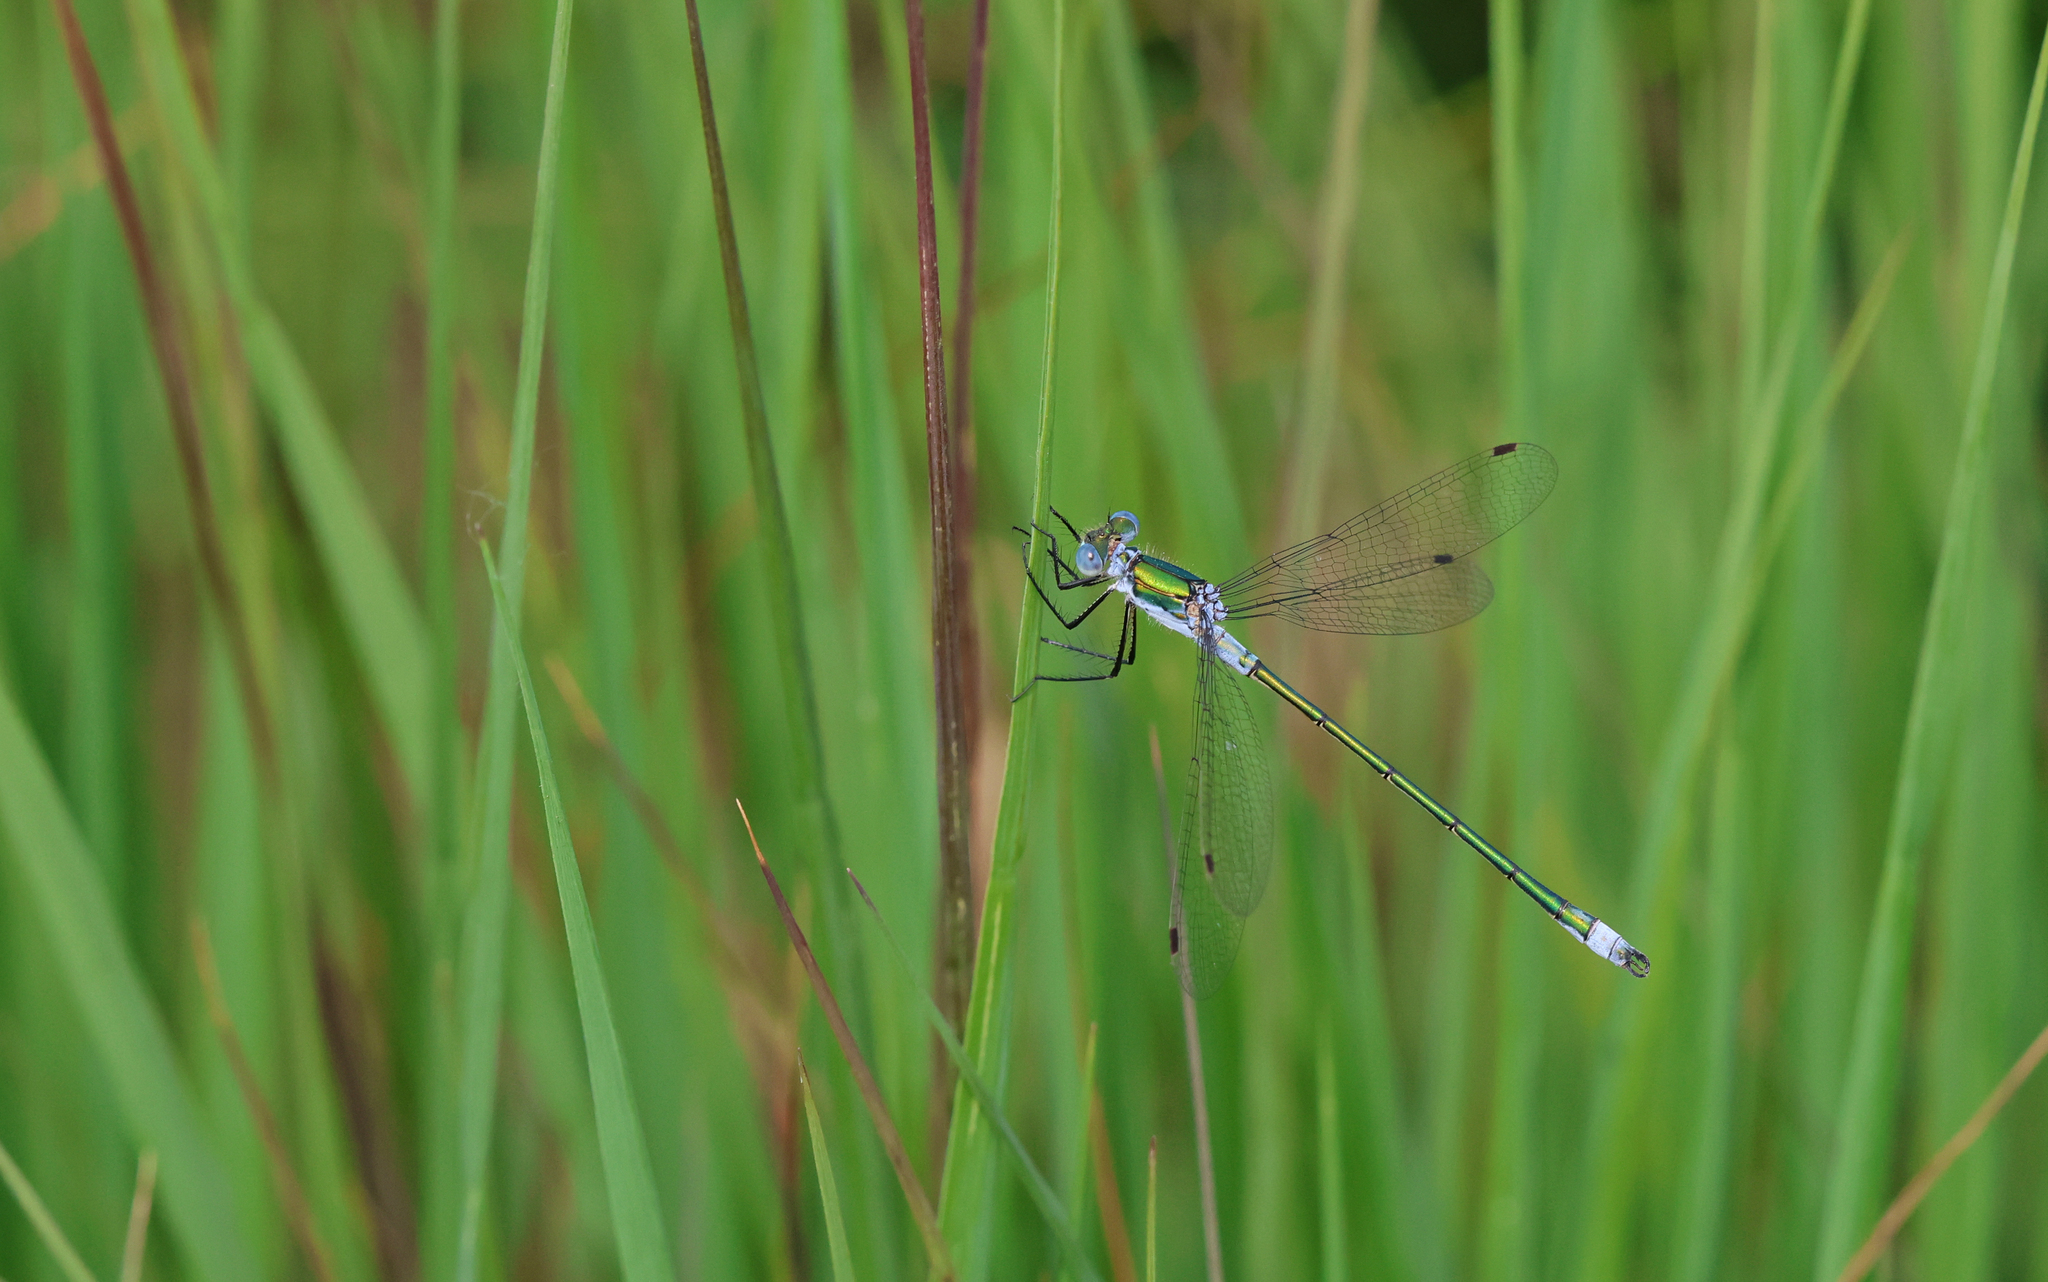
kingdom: Animalia
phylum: Arthropoda
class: Insecta
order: Odonata
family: Lestidae
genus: Lestes
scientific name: Lestes sponsa
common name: Common spreadwing
